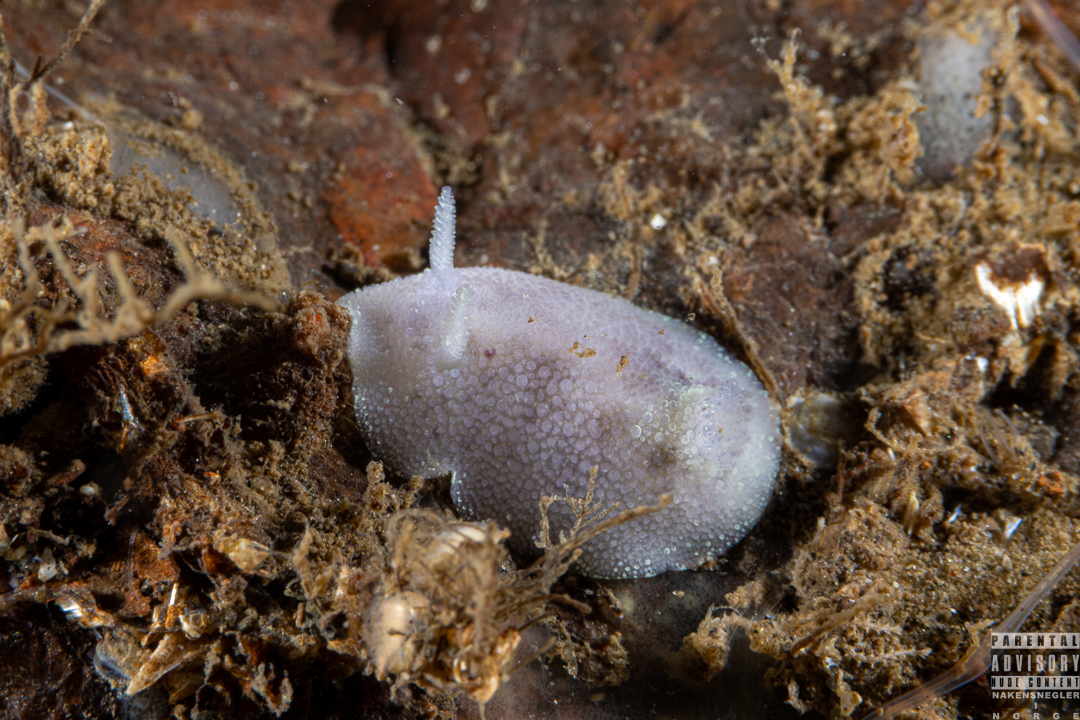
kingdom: Animalia
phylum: Mollusca
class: Gastropoda
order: Nudibranchia
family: Dorididae
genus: Doris
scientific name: Doris pseudoargus
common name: Sea lemon
